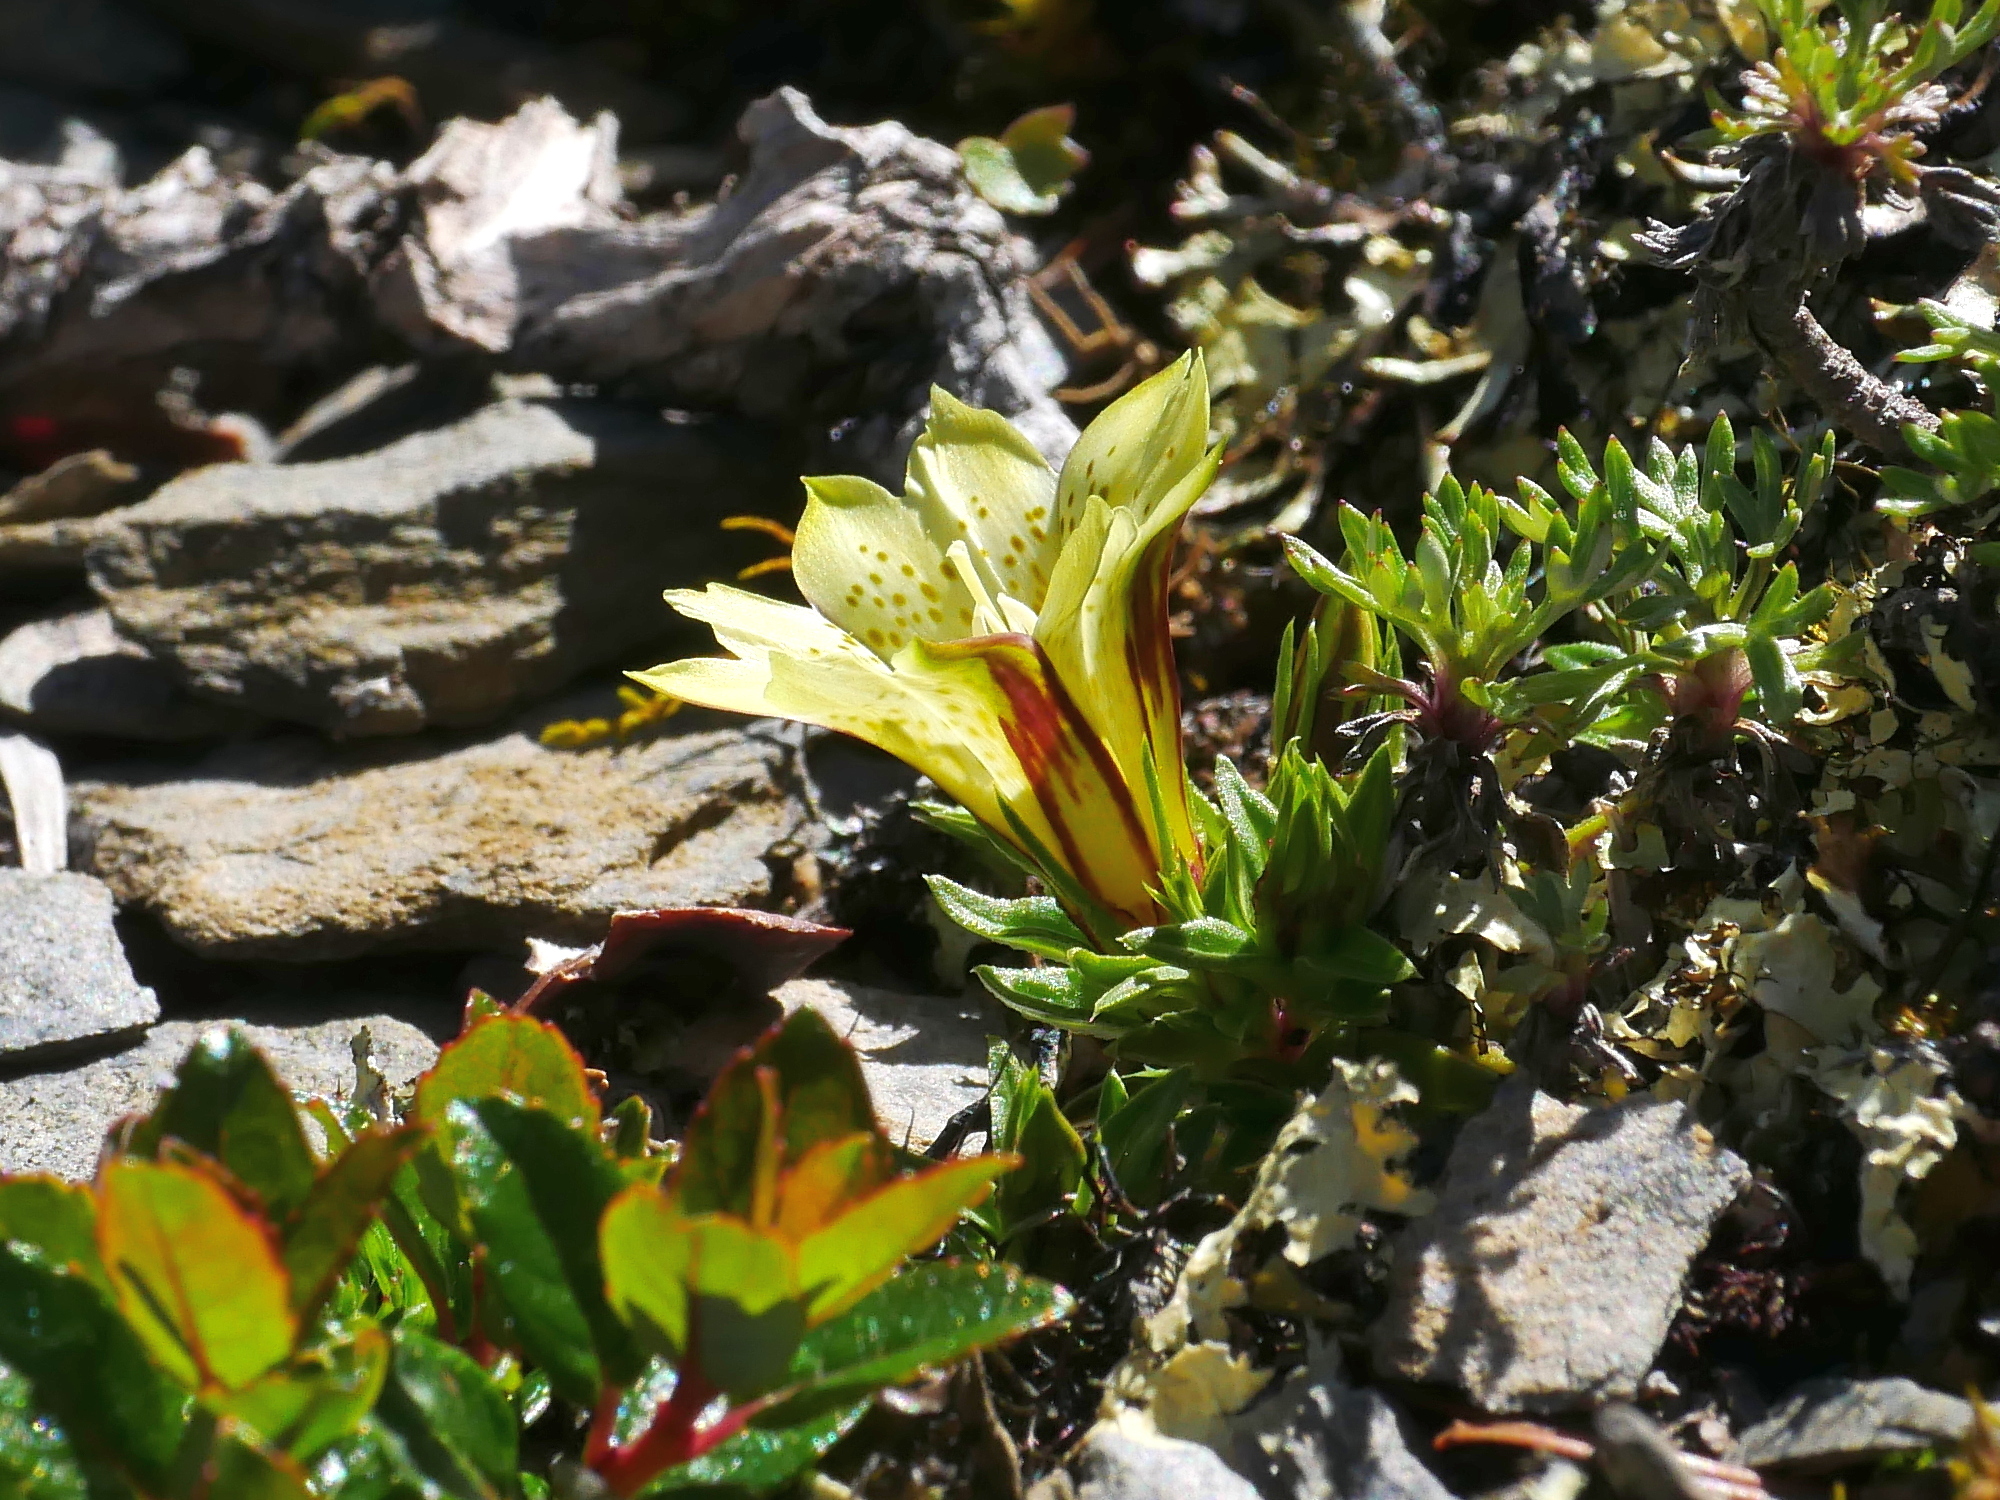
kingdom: Plantae
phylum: Tracheophyta
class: Magnoliopsida
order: Gentianales
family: Gentianaceae
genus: Gentiana
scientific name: Gentiana kaohsiungensis
